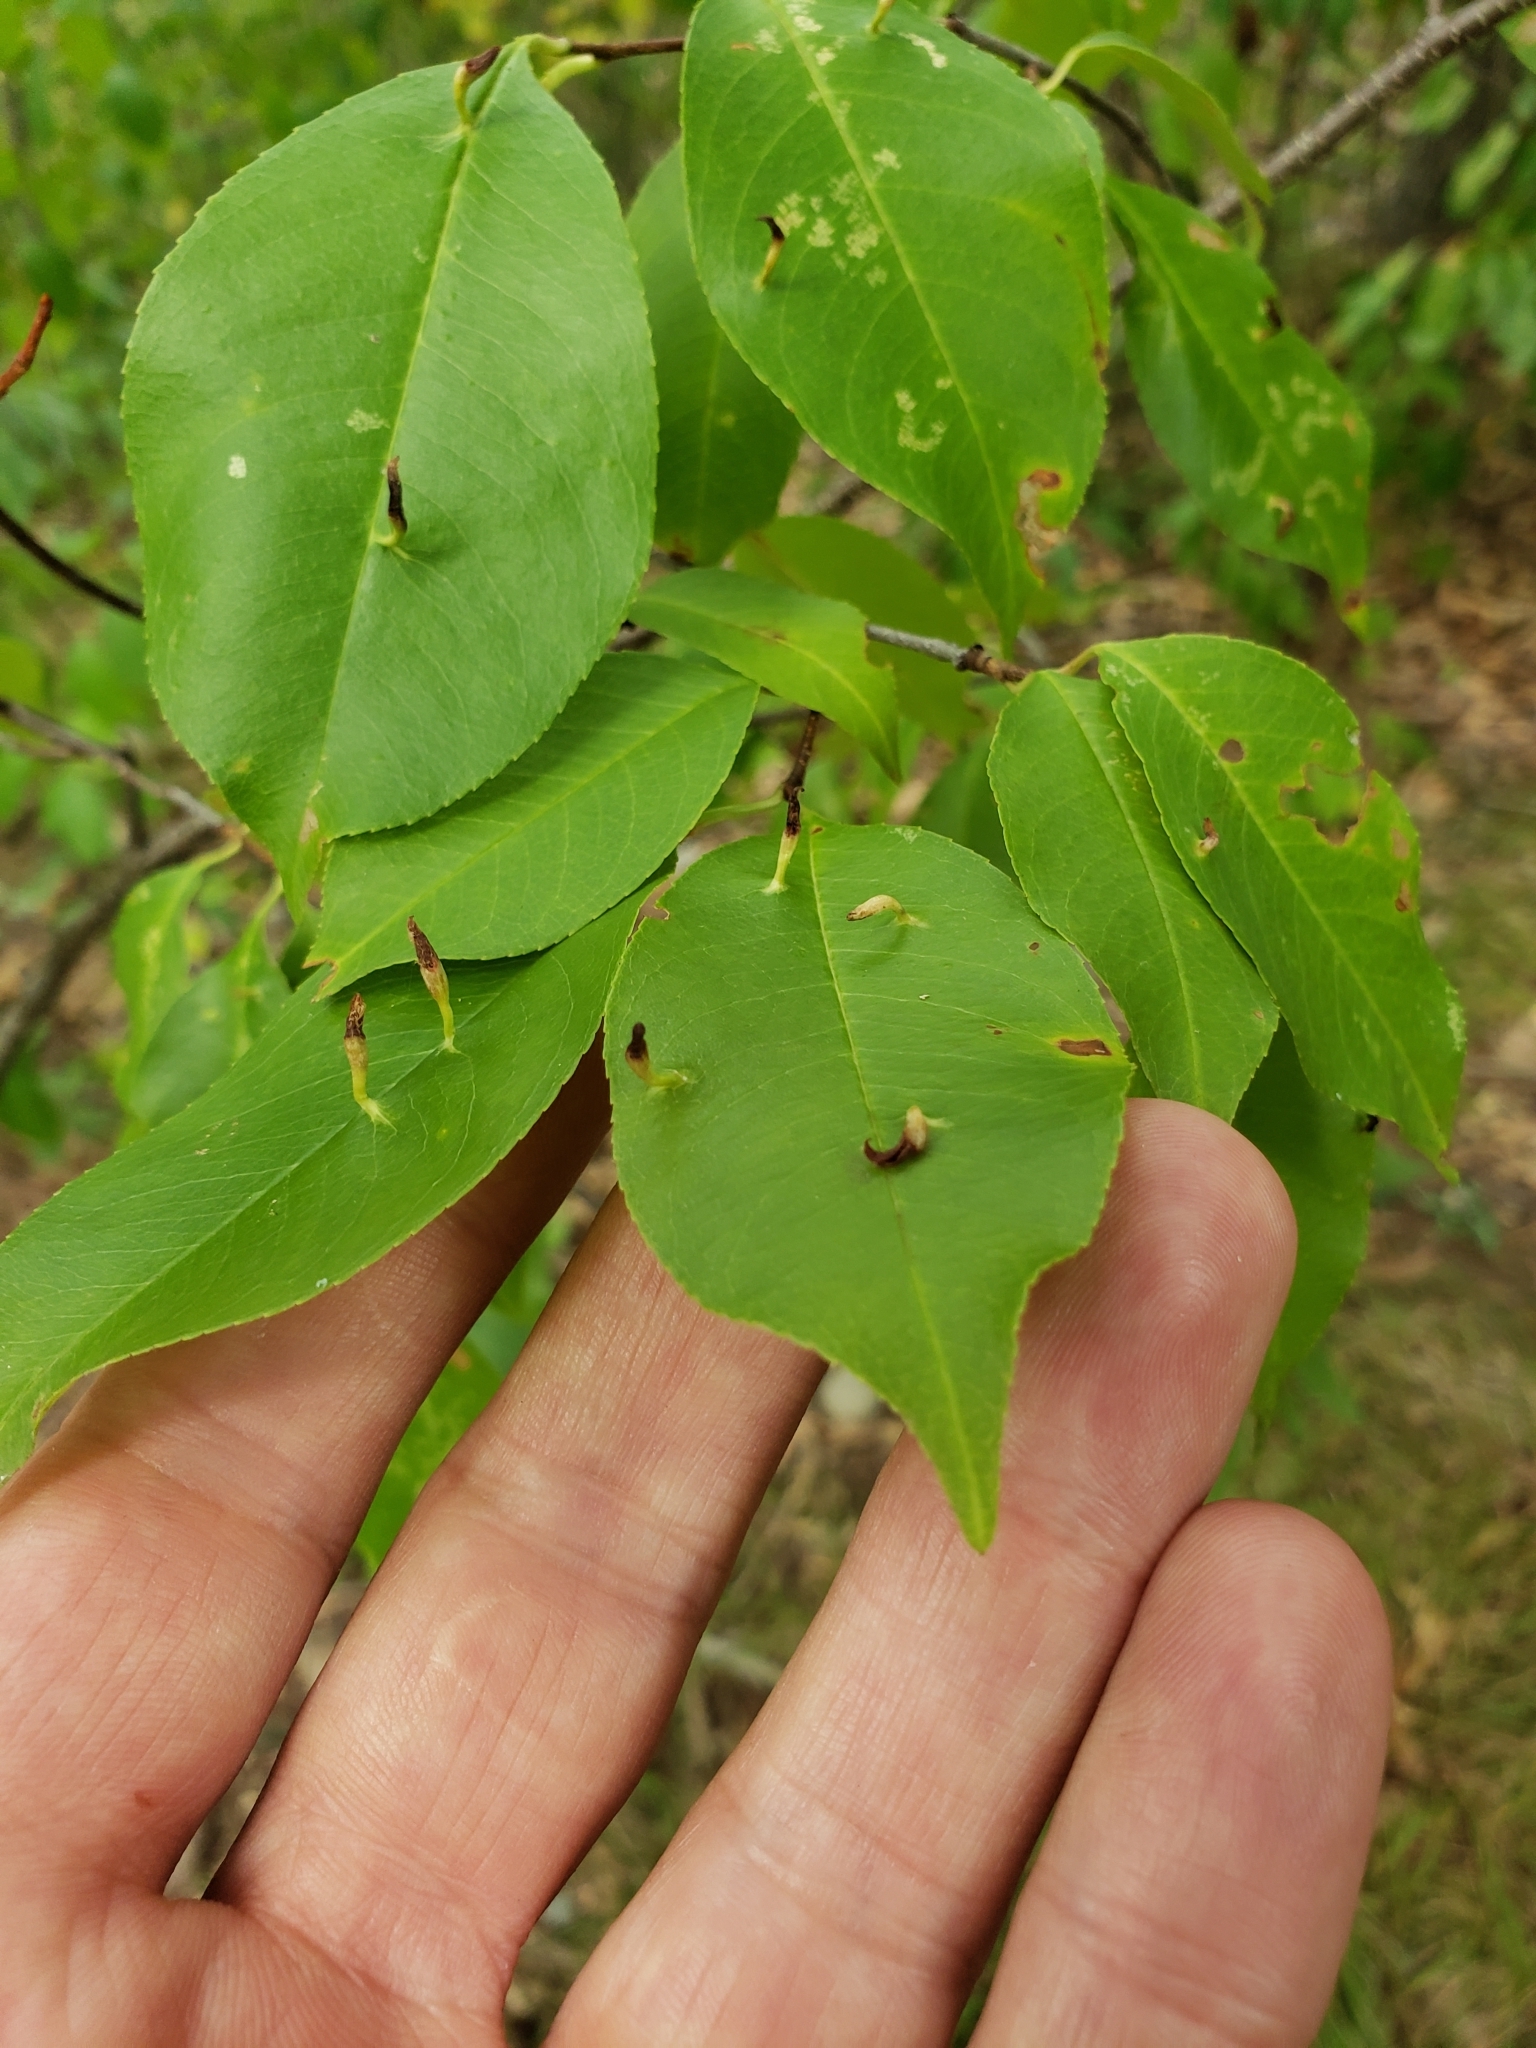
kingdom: Animalia
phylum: Arthropoda
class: Arachnida
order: Trombidiformes
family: Eriophyidae
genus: Eriophyes
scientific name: Eriophyes
